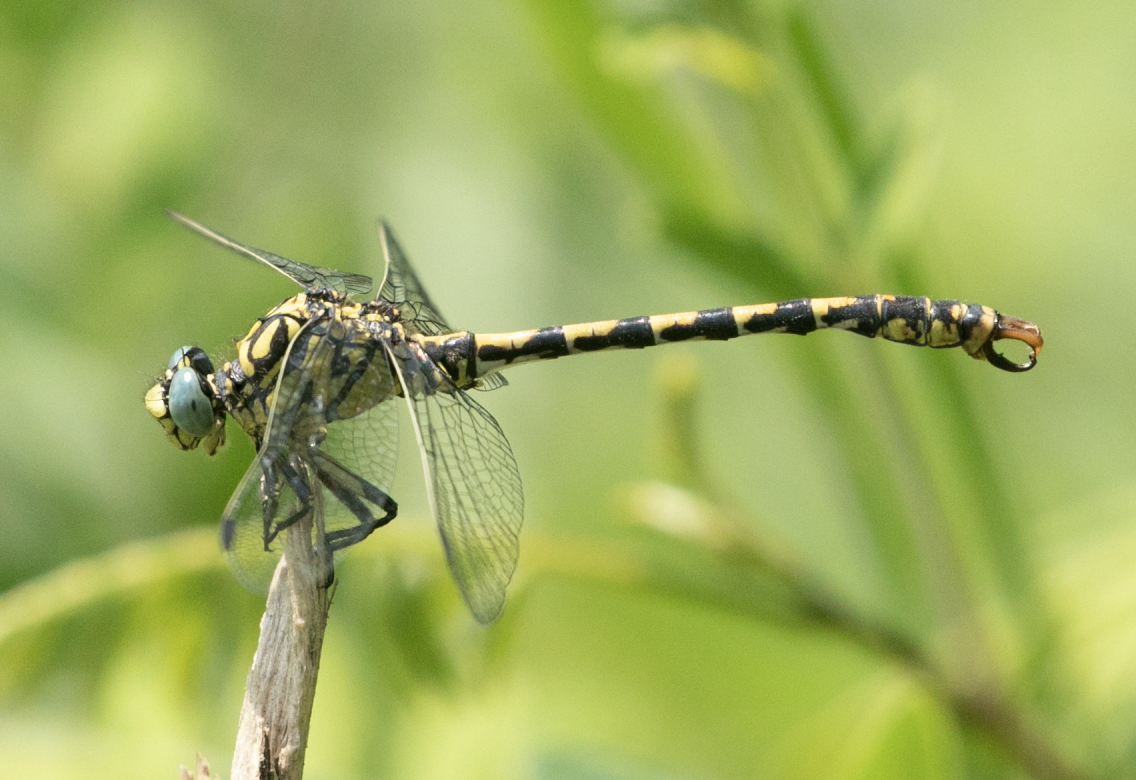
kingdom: Animalia
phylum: Arthropoda
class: Insecta
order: Odonata
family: Gomphidae
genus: Onychogomphus
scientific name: Onychogomphus forcipatus
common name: Small pincertail
